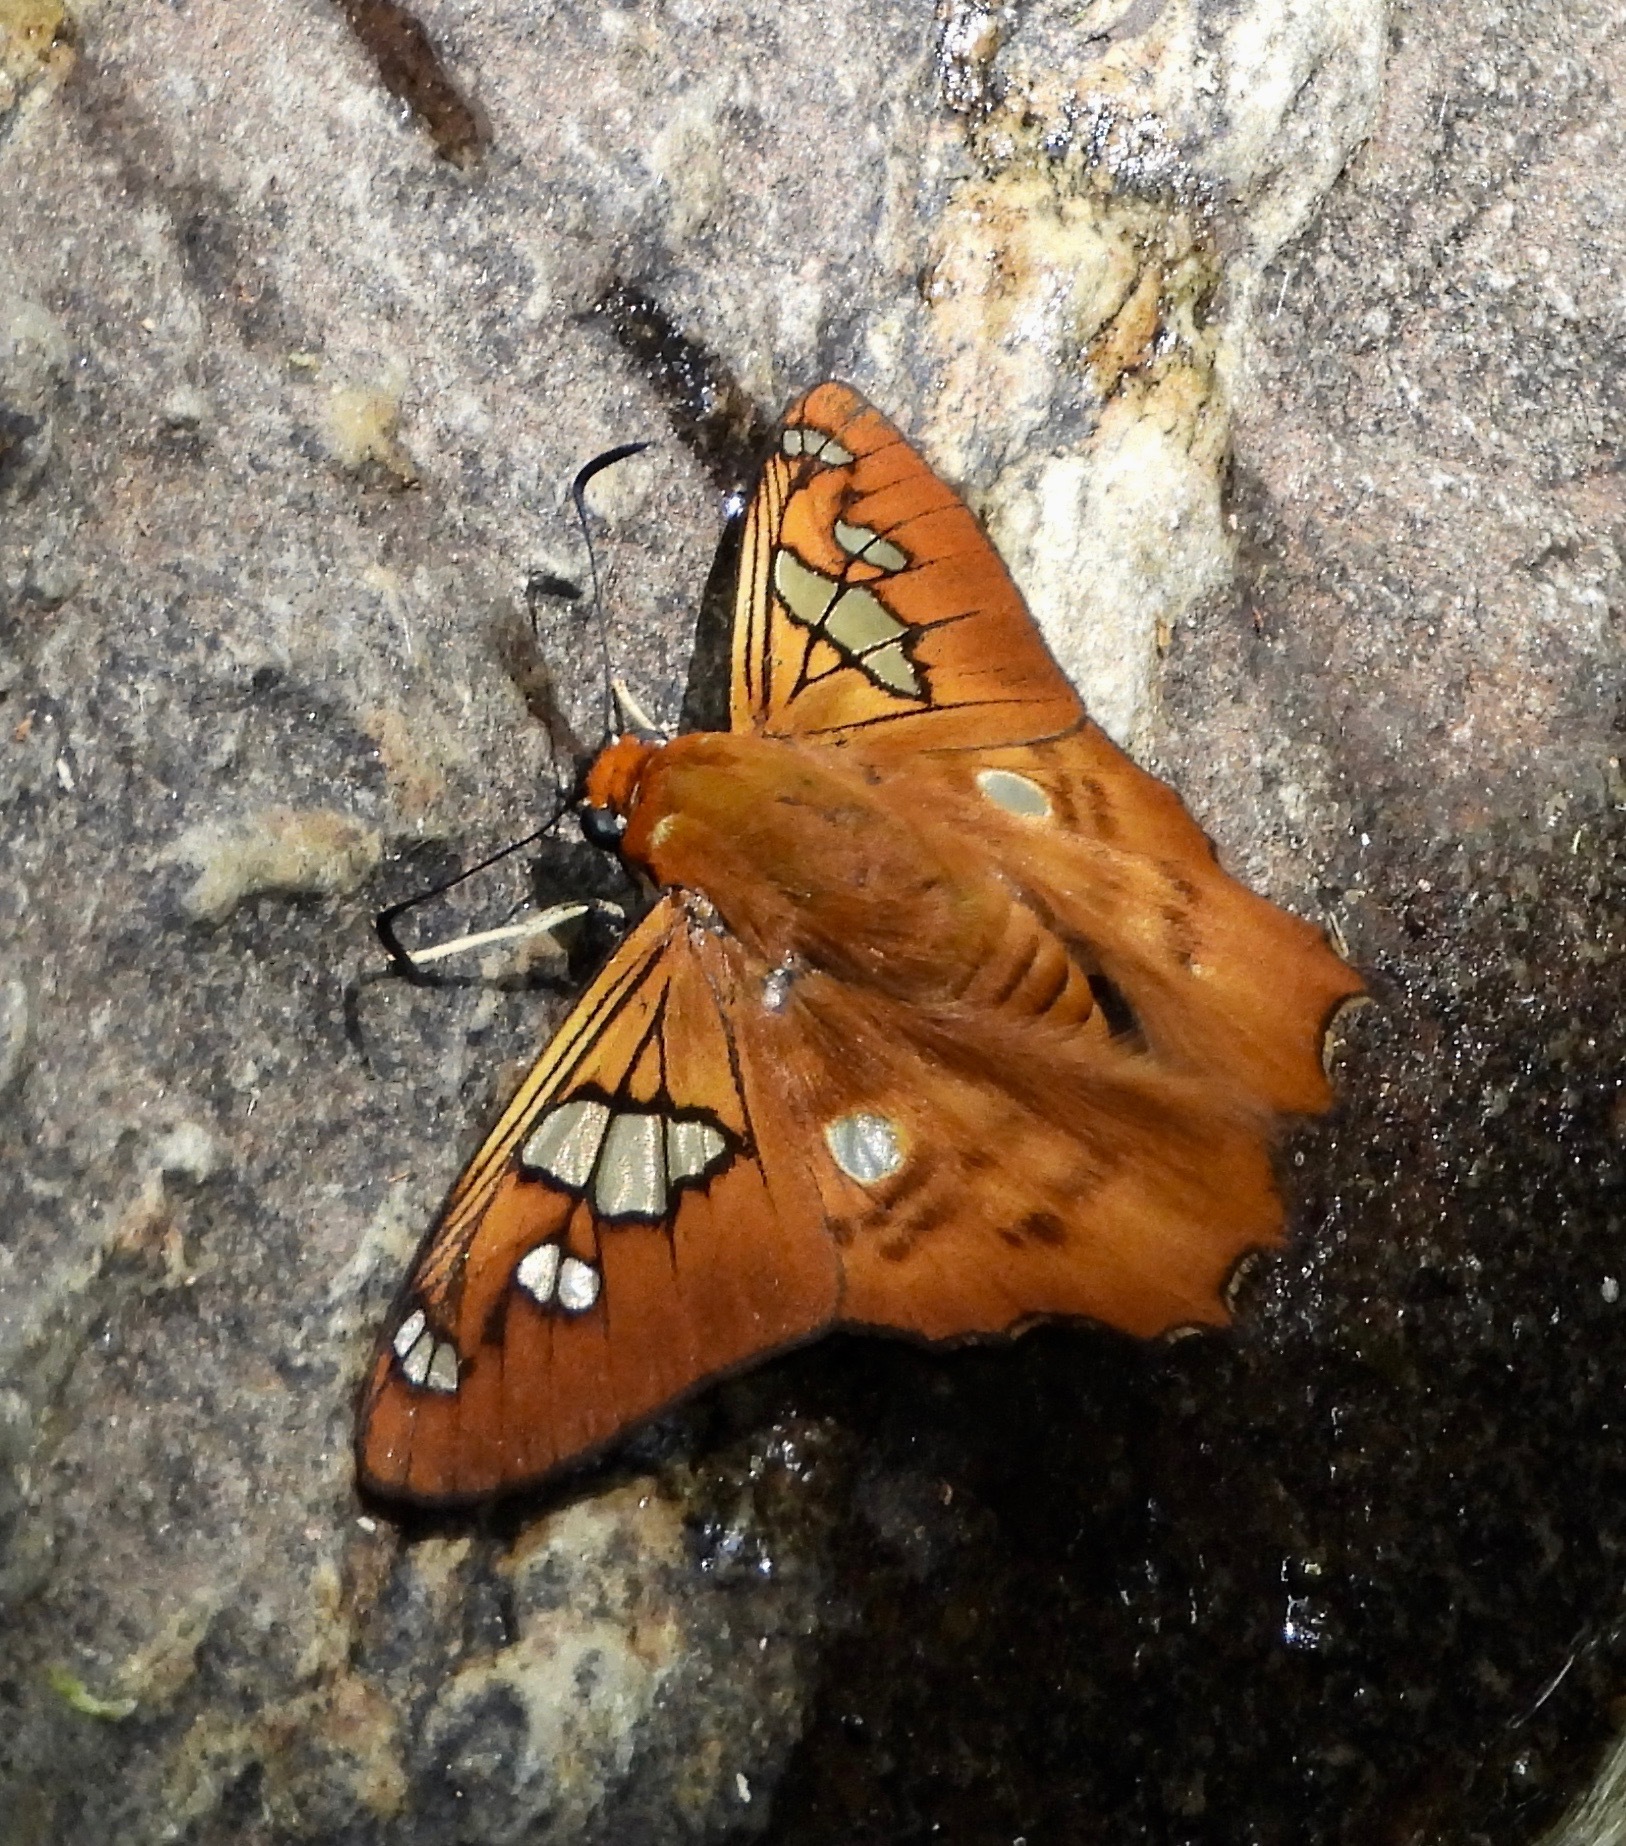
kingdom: Animalia
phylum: Arthropoda
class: Insecta
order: Lepidoptera
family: Hesperiidae
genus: Myscelus
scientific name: Myscelus phoronis
